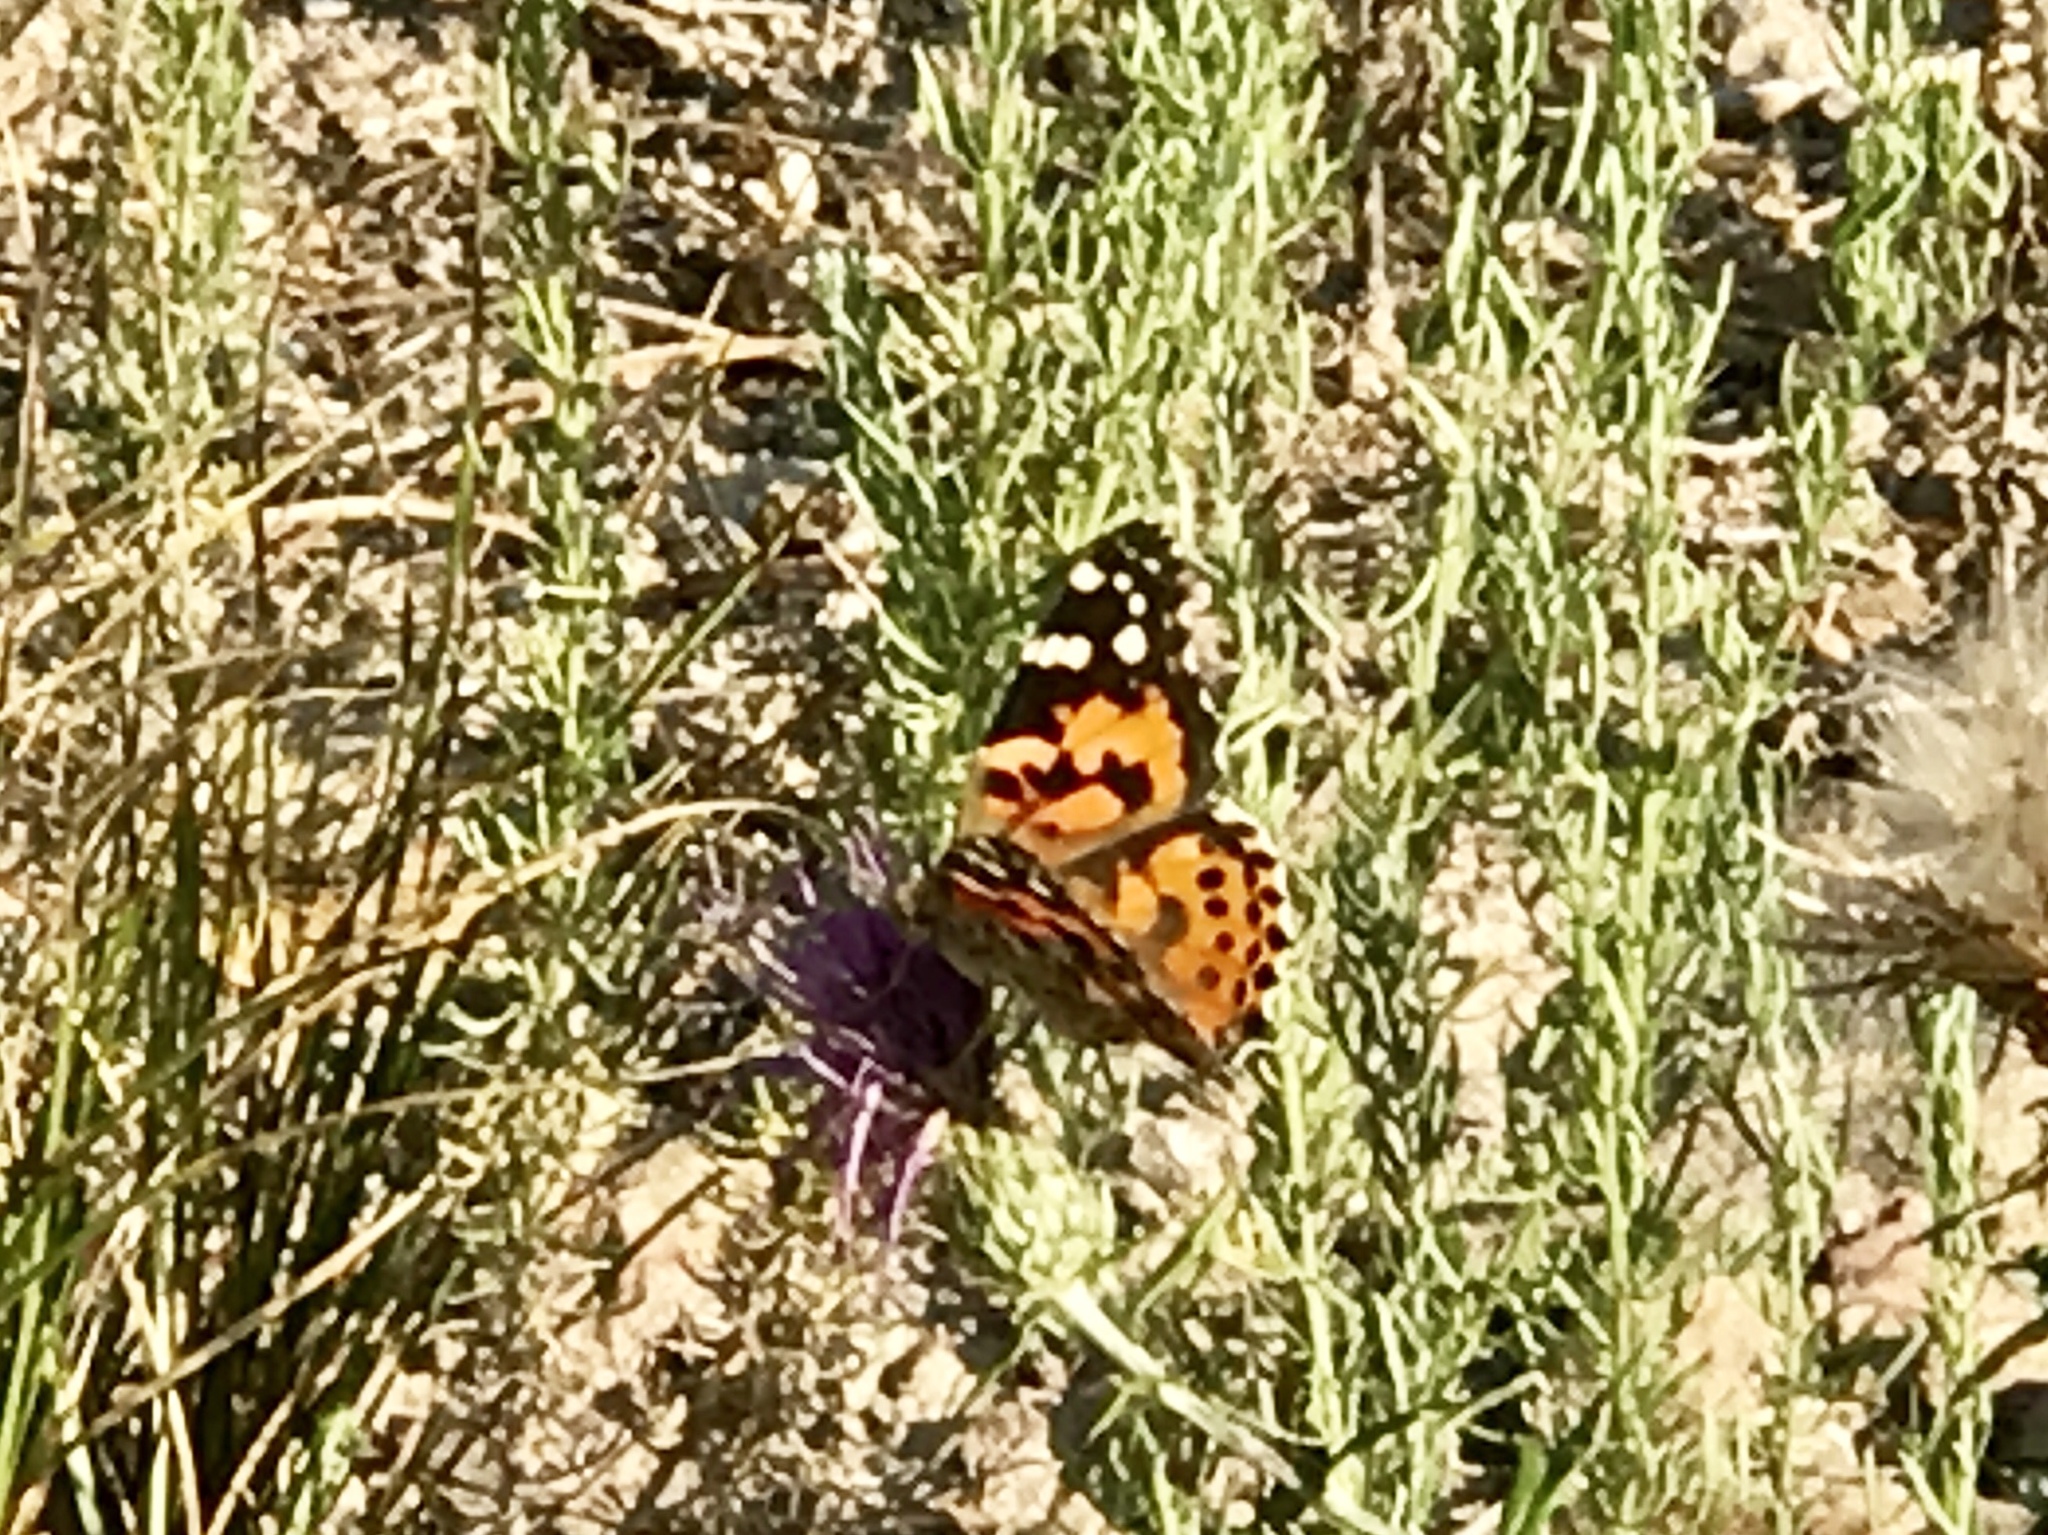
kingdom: Animalia
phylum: Arthropoda
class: Insecta
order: Lepidoptera
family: Nymphalidae
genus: Vanessa
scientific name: Vanessa cardui
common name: Painted lady
